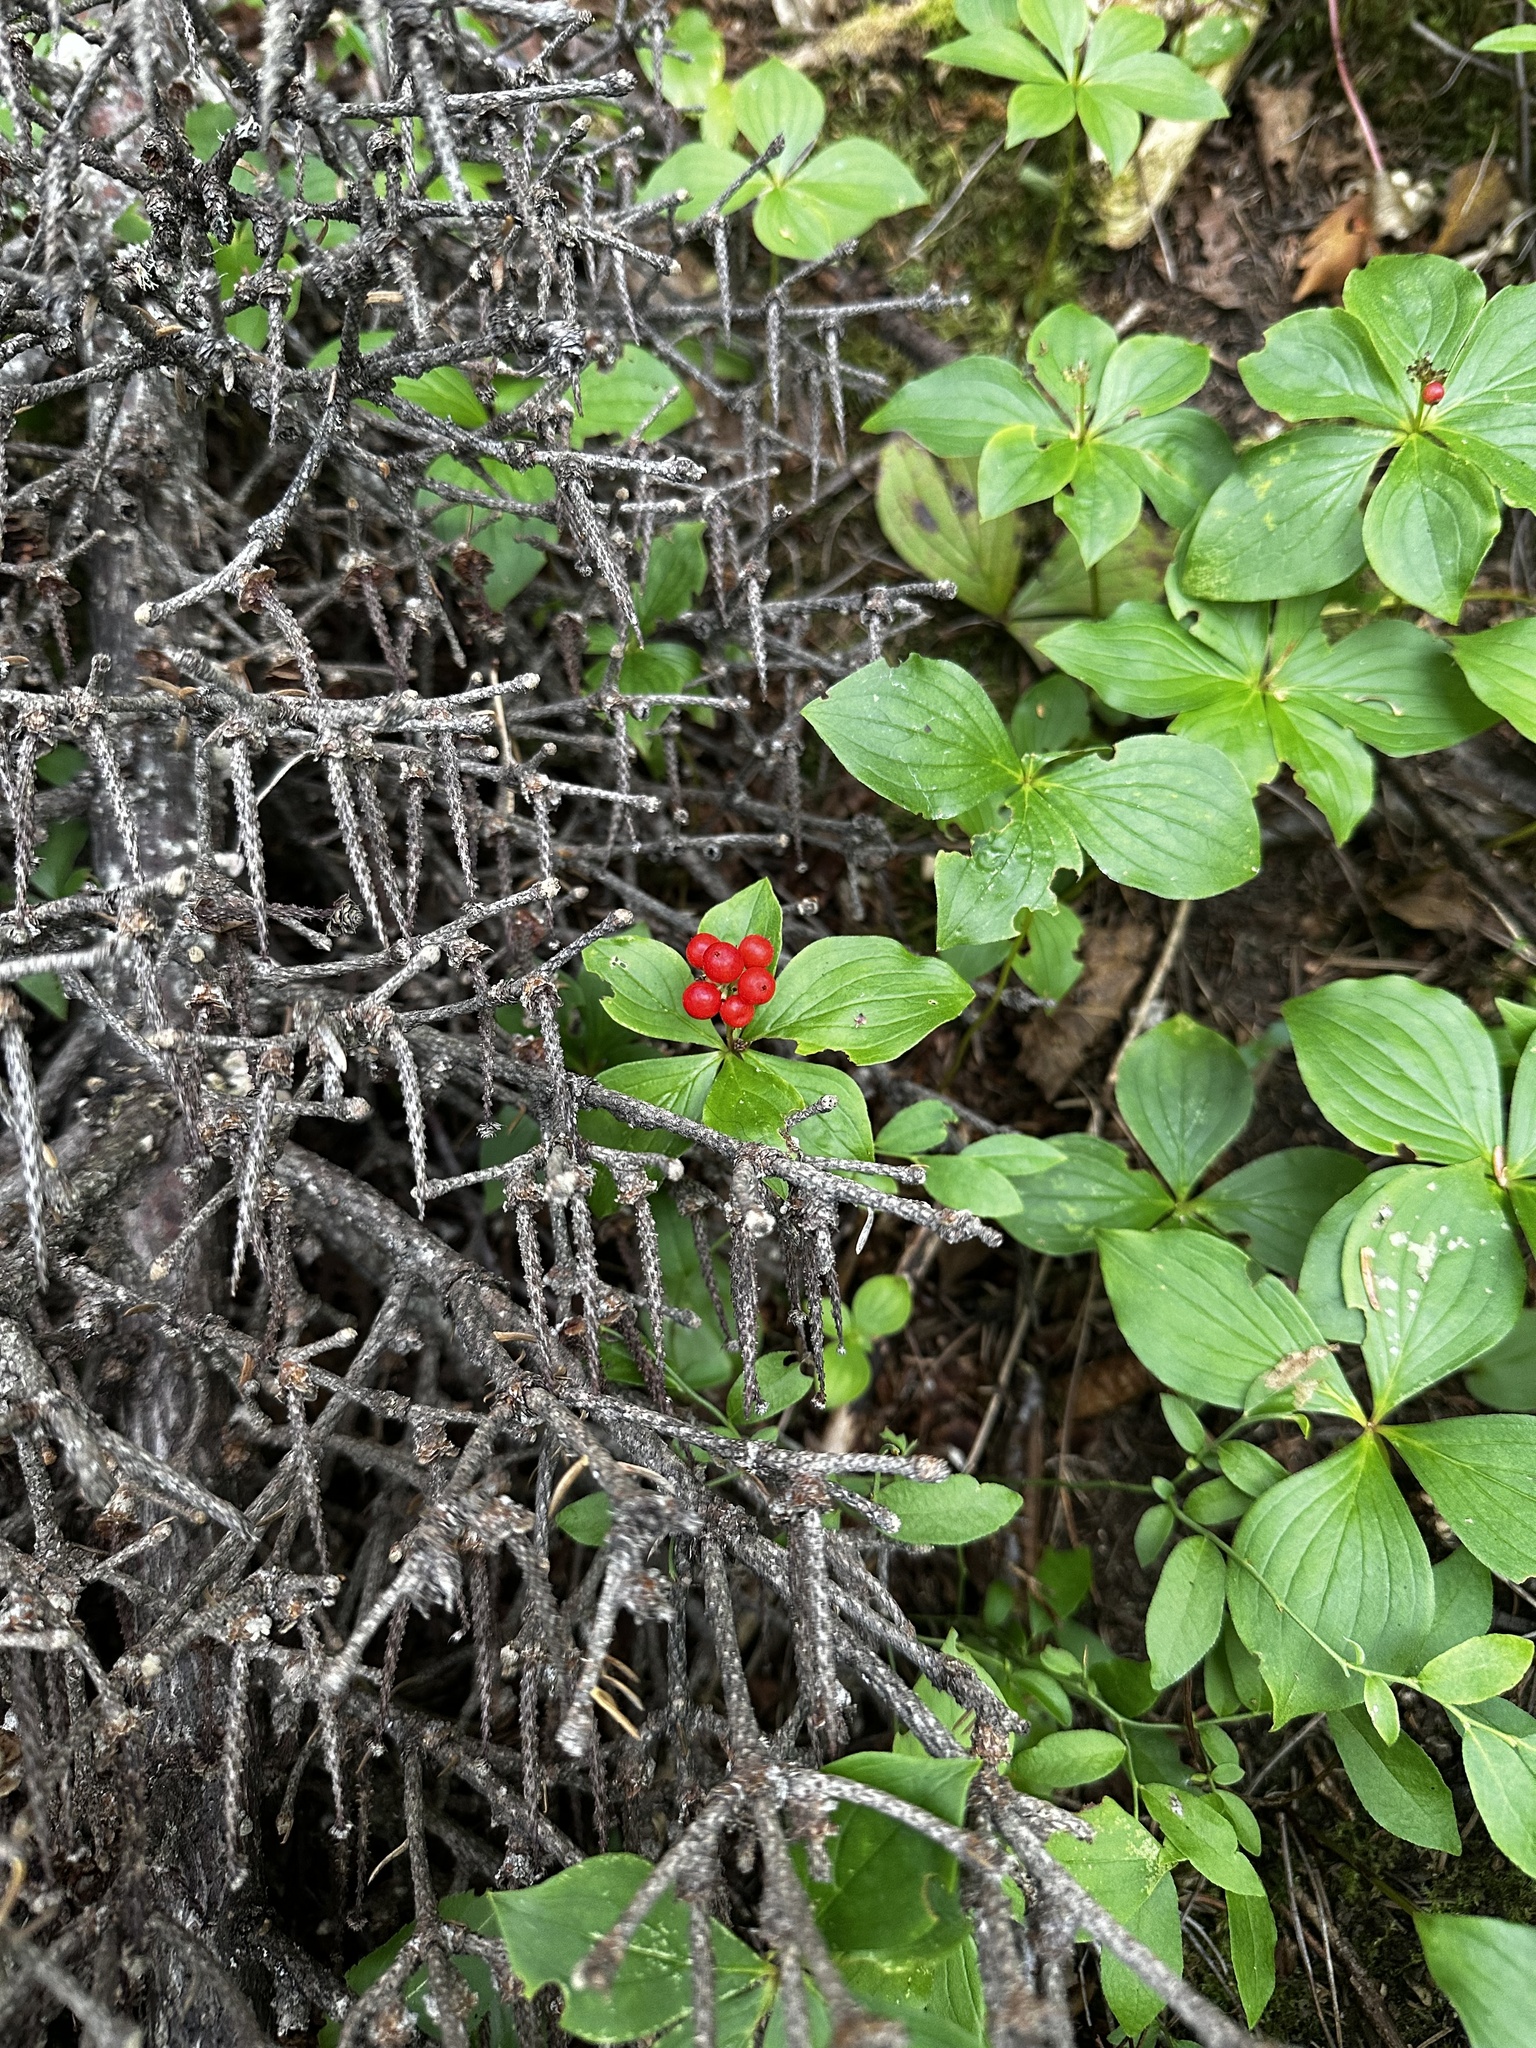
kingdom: Plantae
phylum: Tracheophyta
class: Magnoliopsida
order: Cornales
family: Cornaceae
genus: Cornus
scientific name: Cornus canadensis
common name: Creeping dogwood
